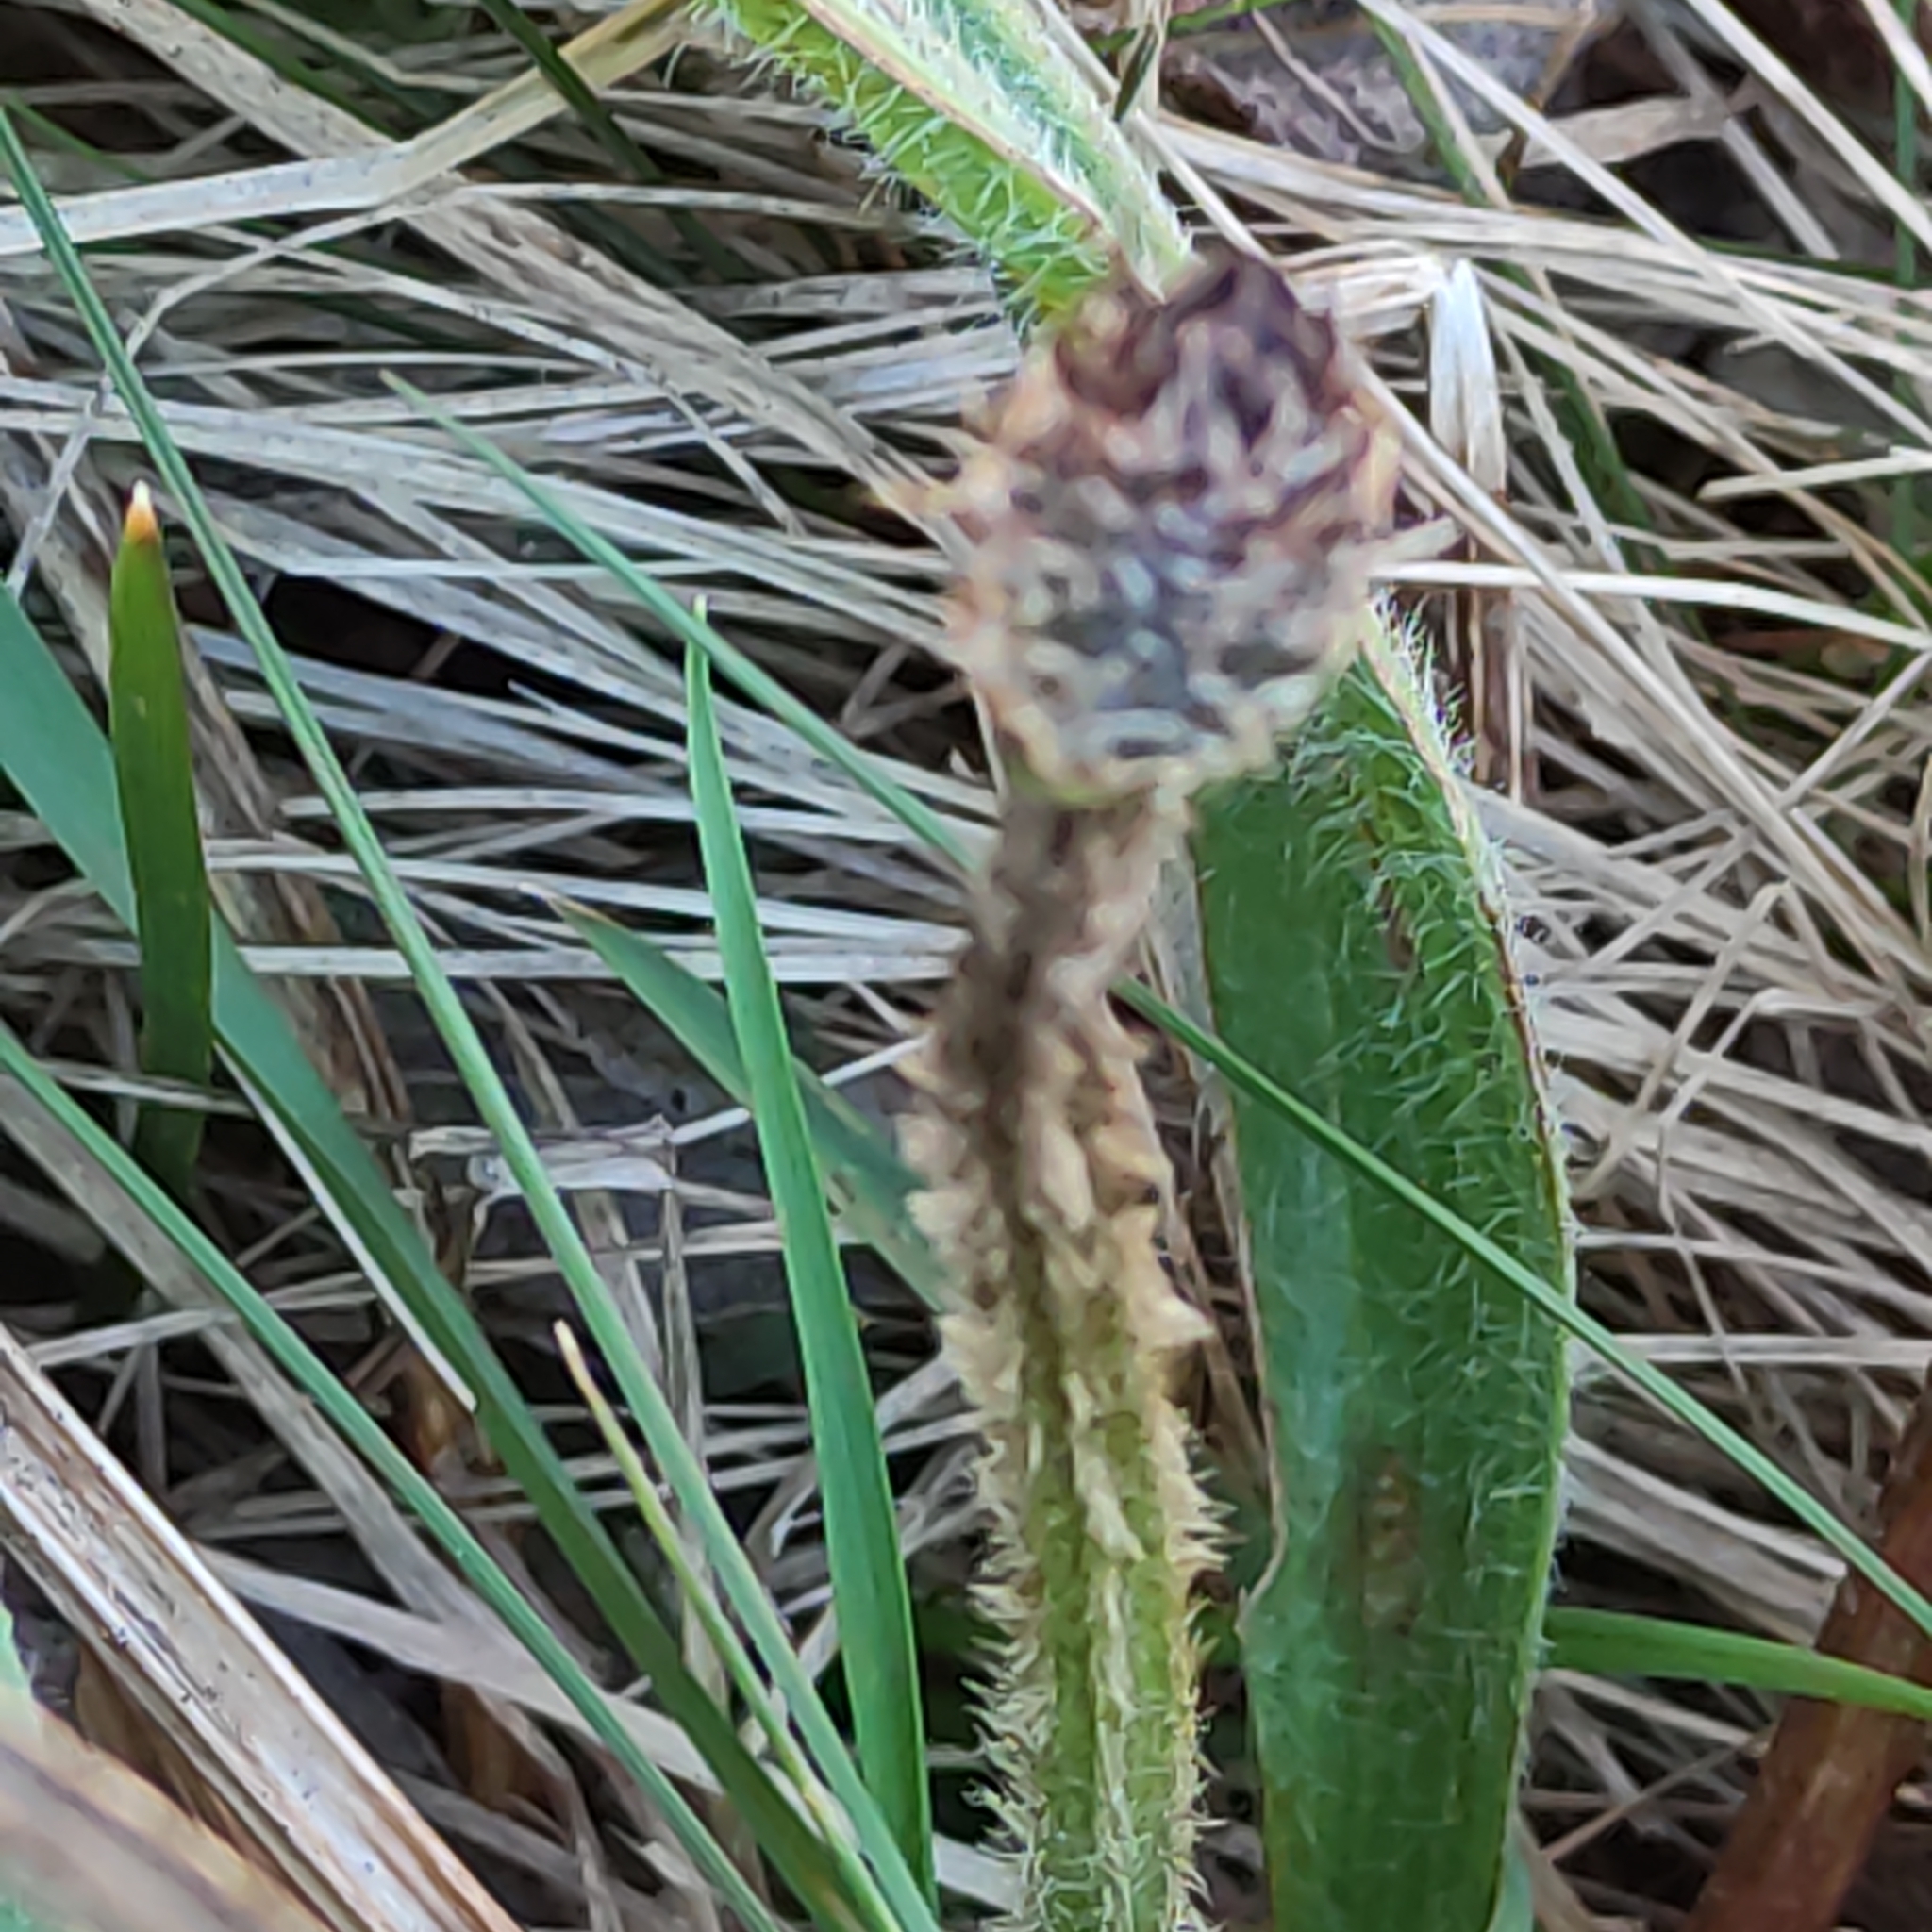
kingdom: Plantae
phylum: Tracheophyta
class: Magnoliopsida
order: Lamiales
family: Plantaginaceae
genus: Plantago
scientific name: Plantago lanceolata
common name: Ribwort plantain
